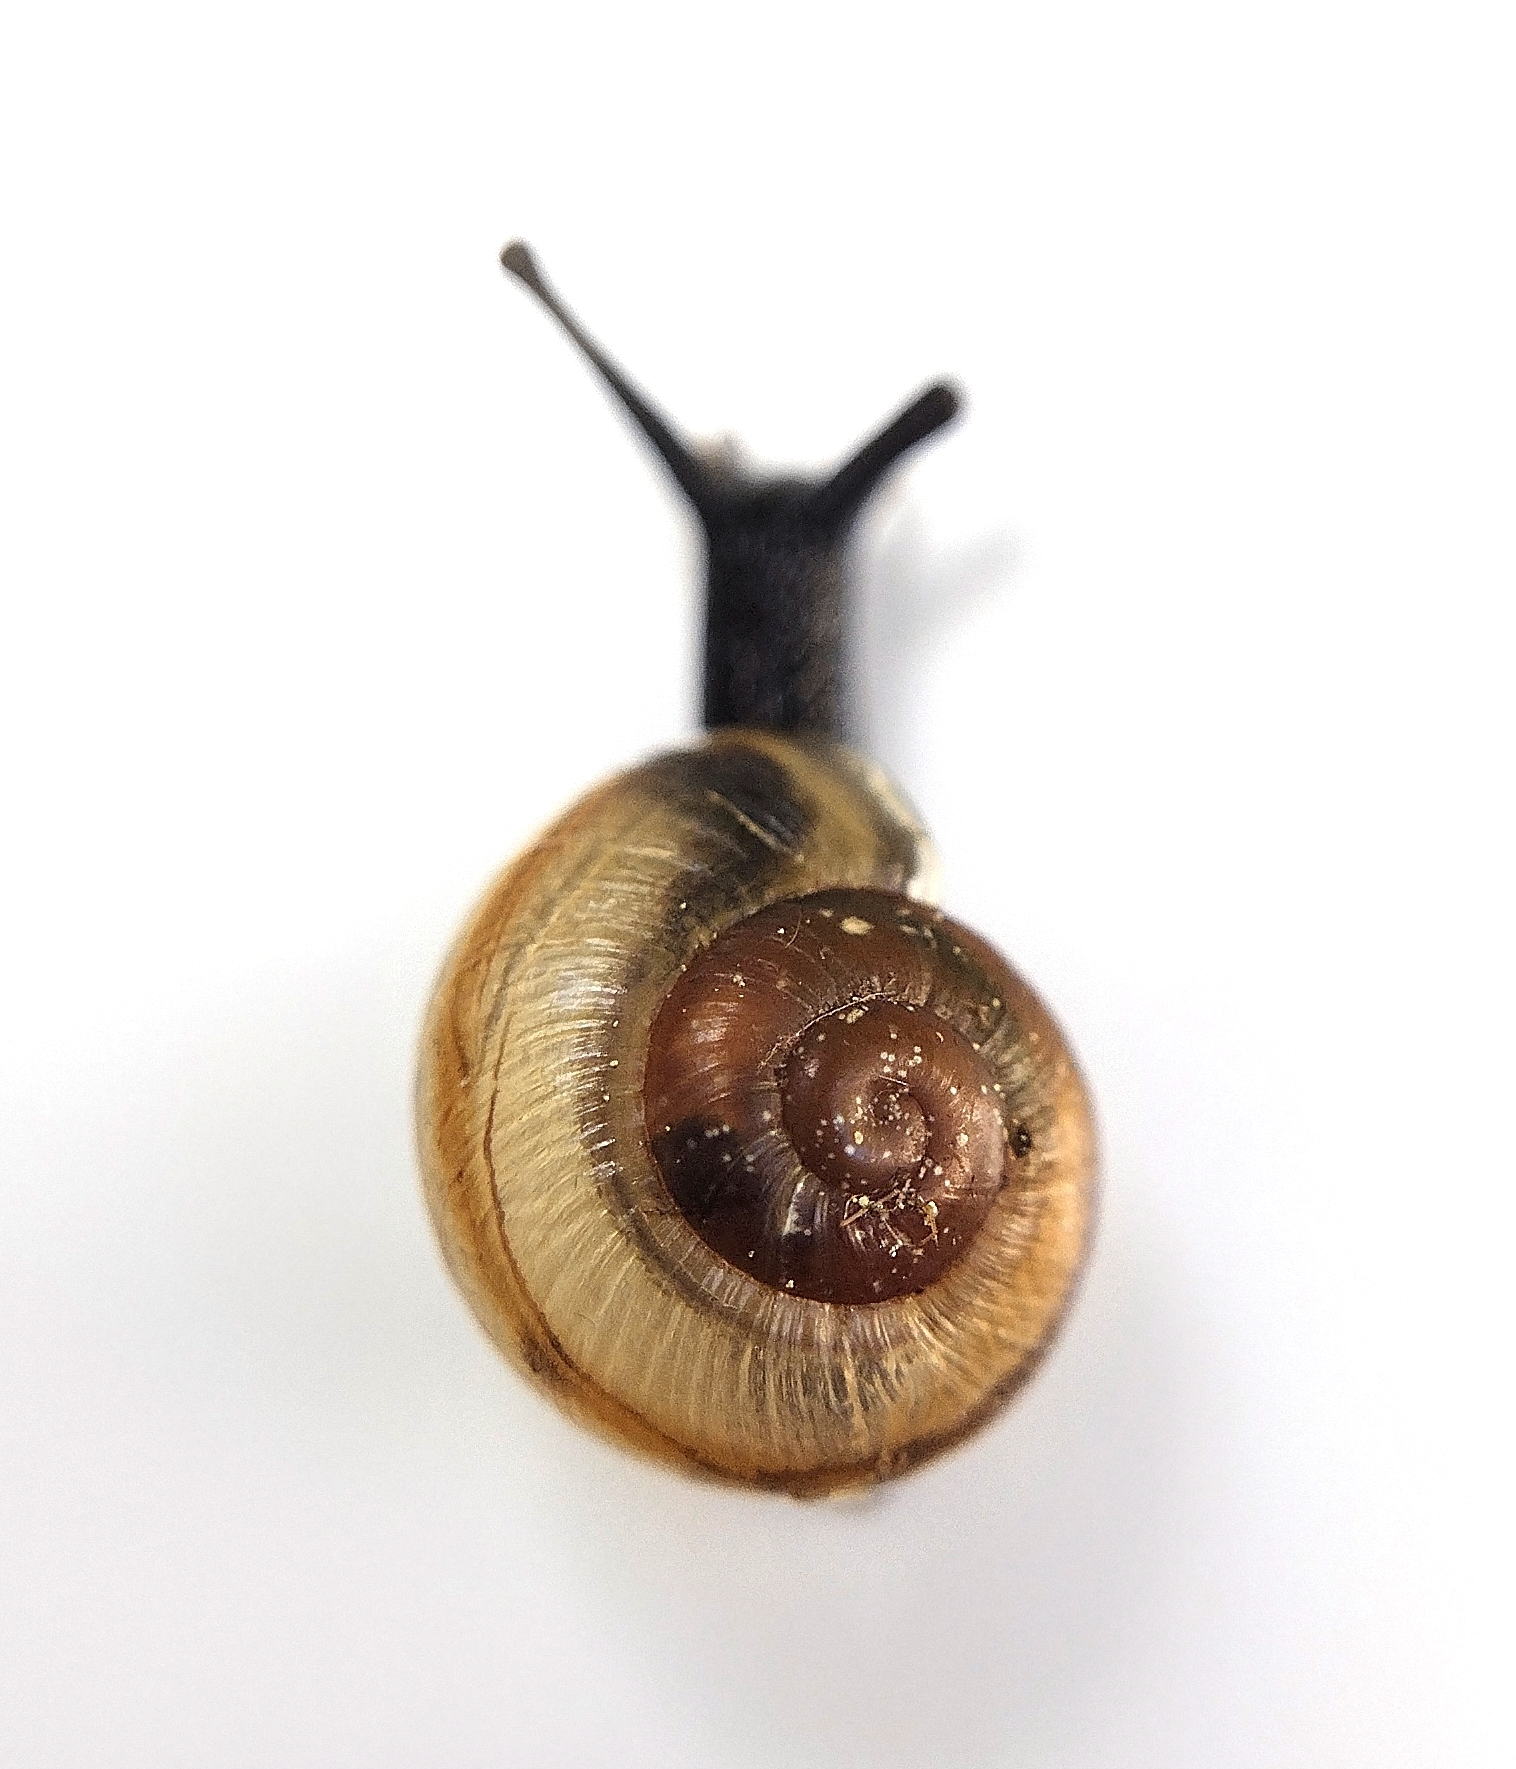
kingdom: Animalia
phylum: Mollusca
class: Gastropoda
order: Stylommatophora
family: Helicidae
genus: Arianta
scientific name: Arianta arbustorum
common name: Copse snail
